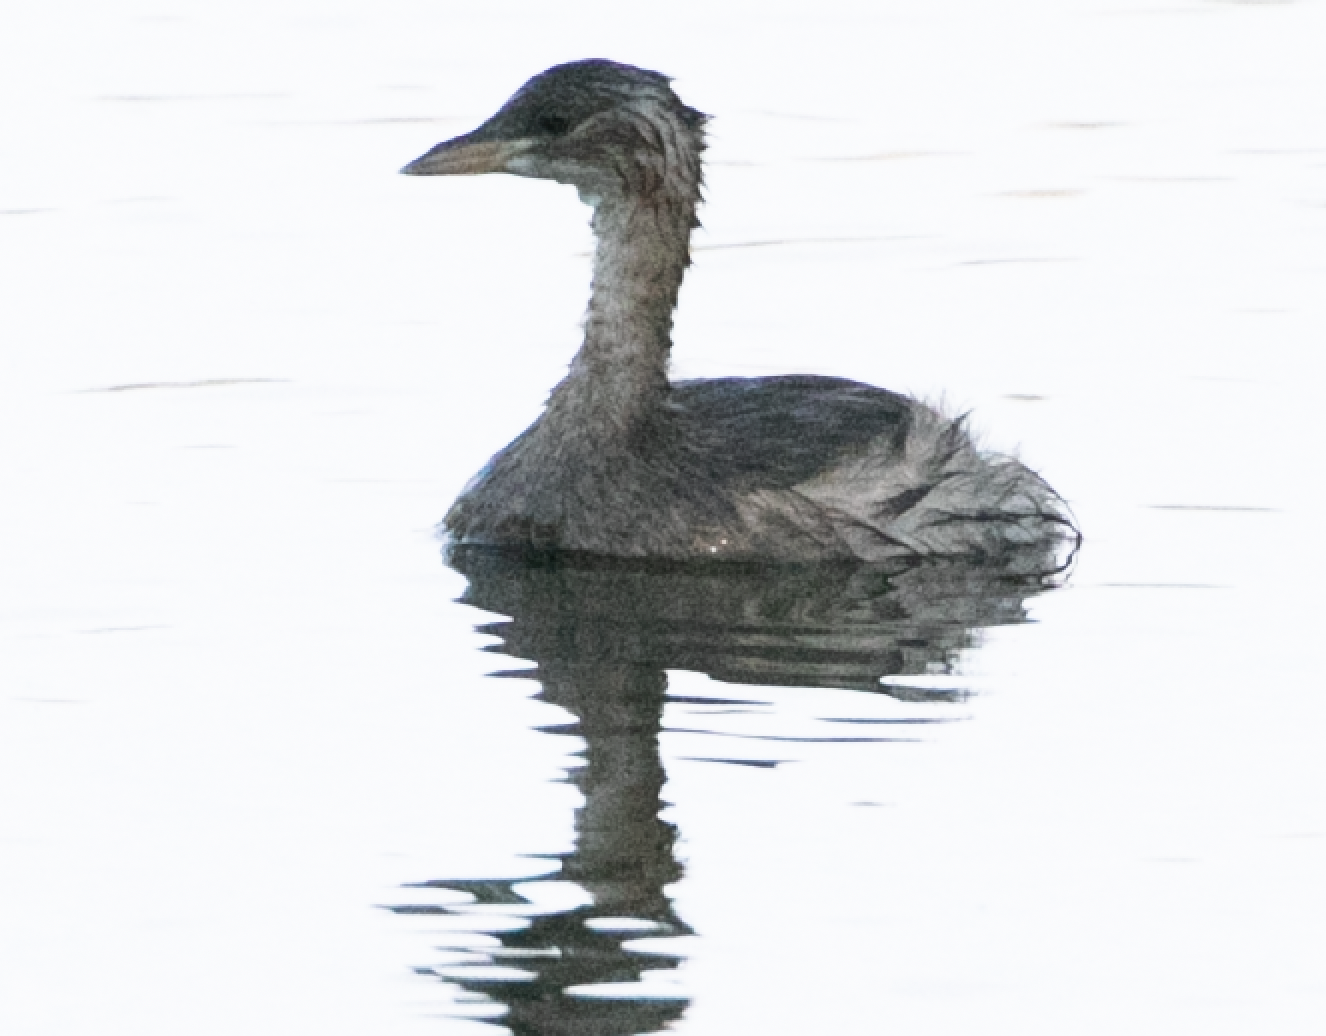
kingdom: Animalia
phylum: Chordata
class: Aves
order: Podicipediformes
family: Podicipedidae
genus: Tachybaptus
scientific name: Tachybaptus ruficollis
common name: Little grebe
